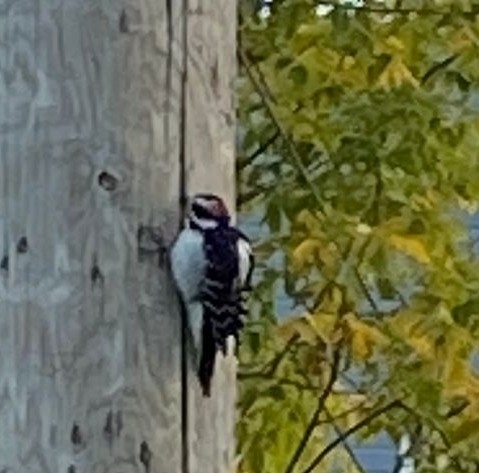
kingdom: Animalia
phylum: Chordata
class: Aves
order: Piciformes
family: Picidae
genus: Leuconotopicus
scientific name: Leuconotopicus villosus
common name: Hairy woodpecker
